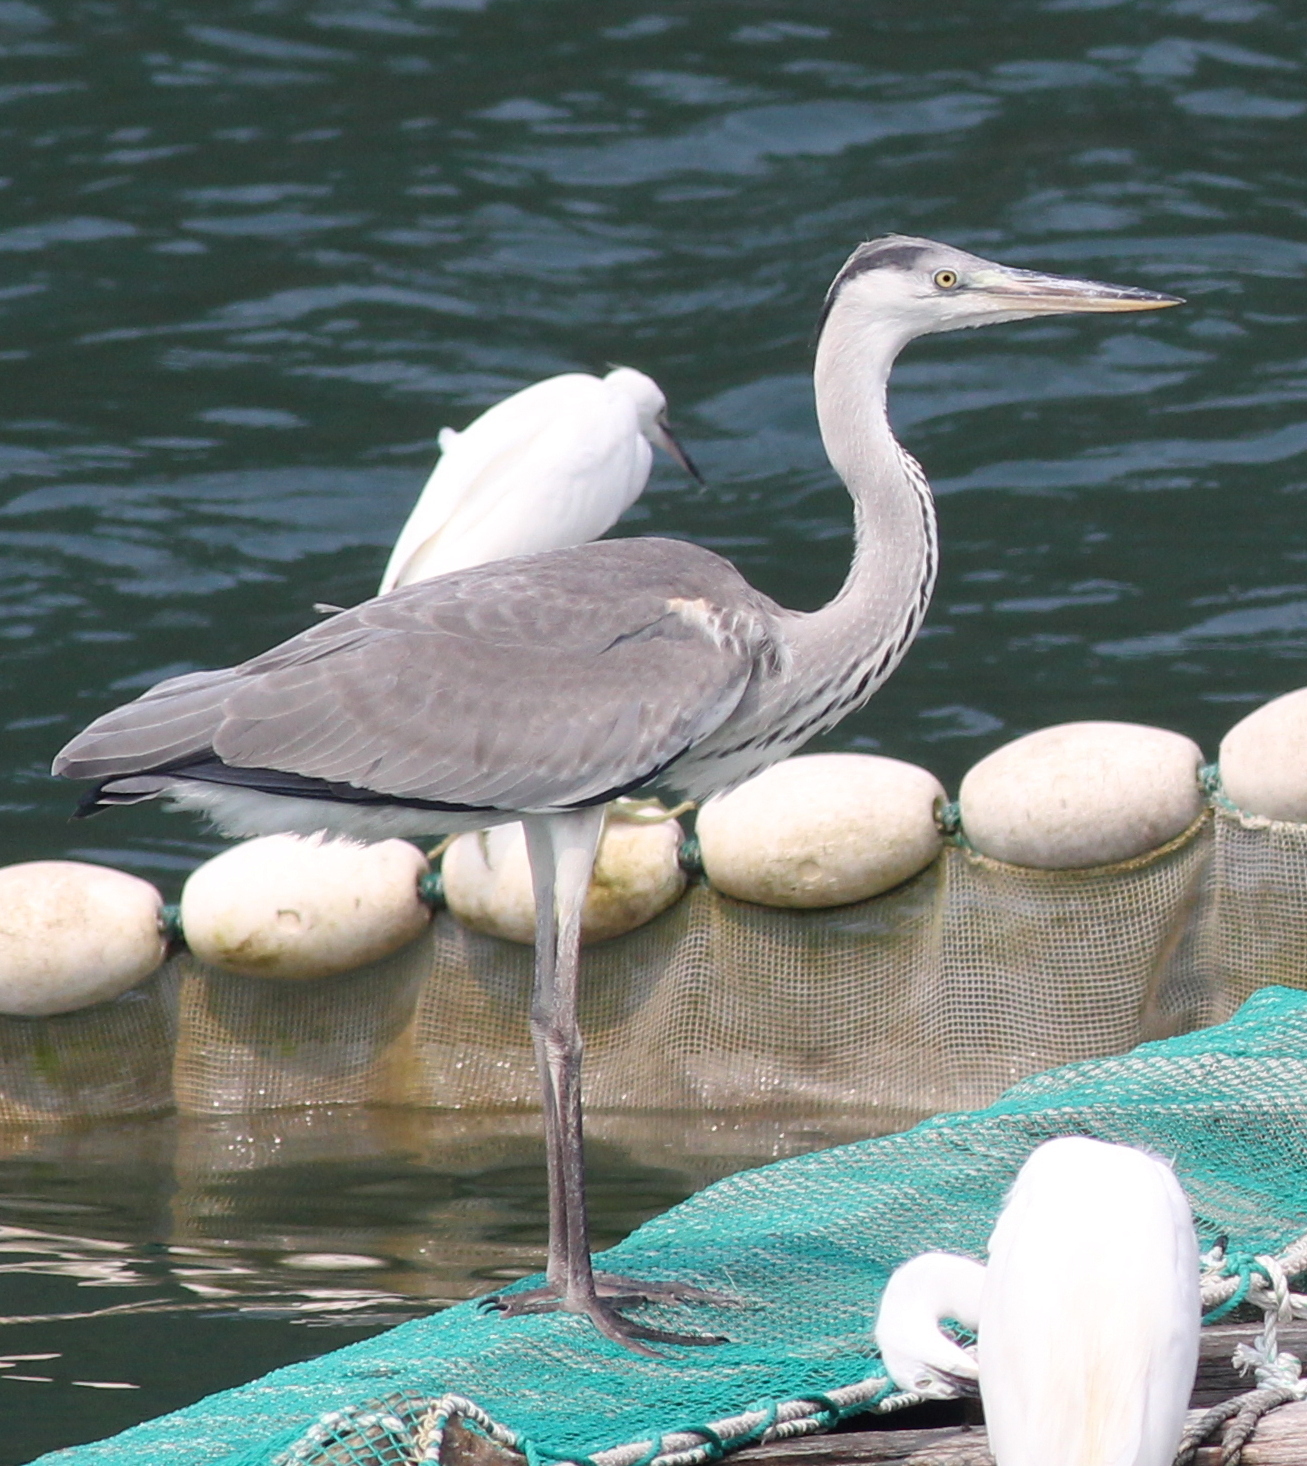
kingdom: Animalia
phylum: Chordata
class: Aves
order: Pelecaniformes
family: Ardeidae
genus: Ardea
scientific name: Ardea cinerea
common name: Grey heron
